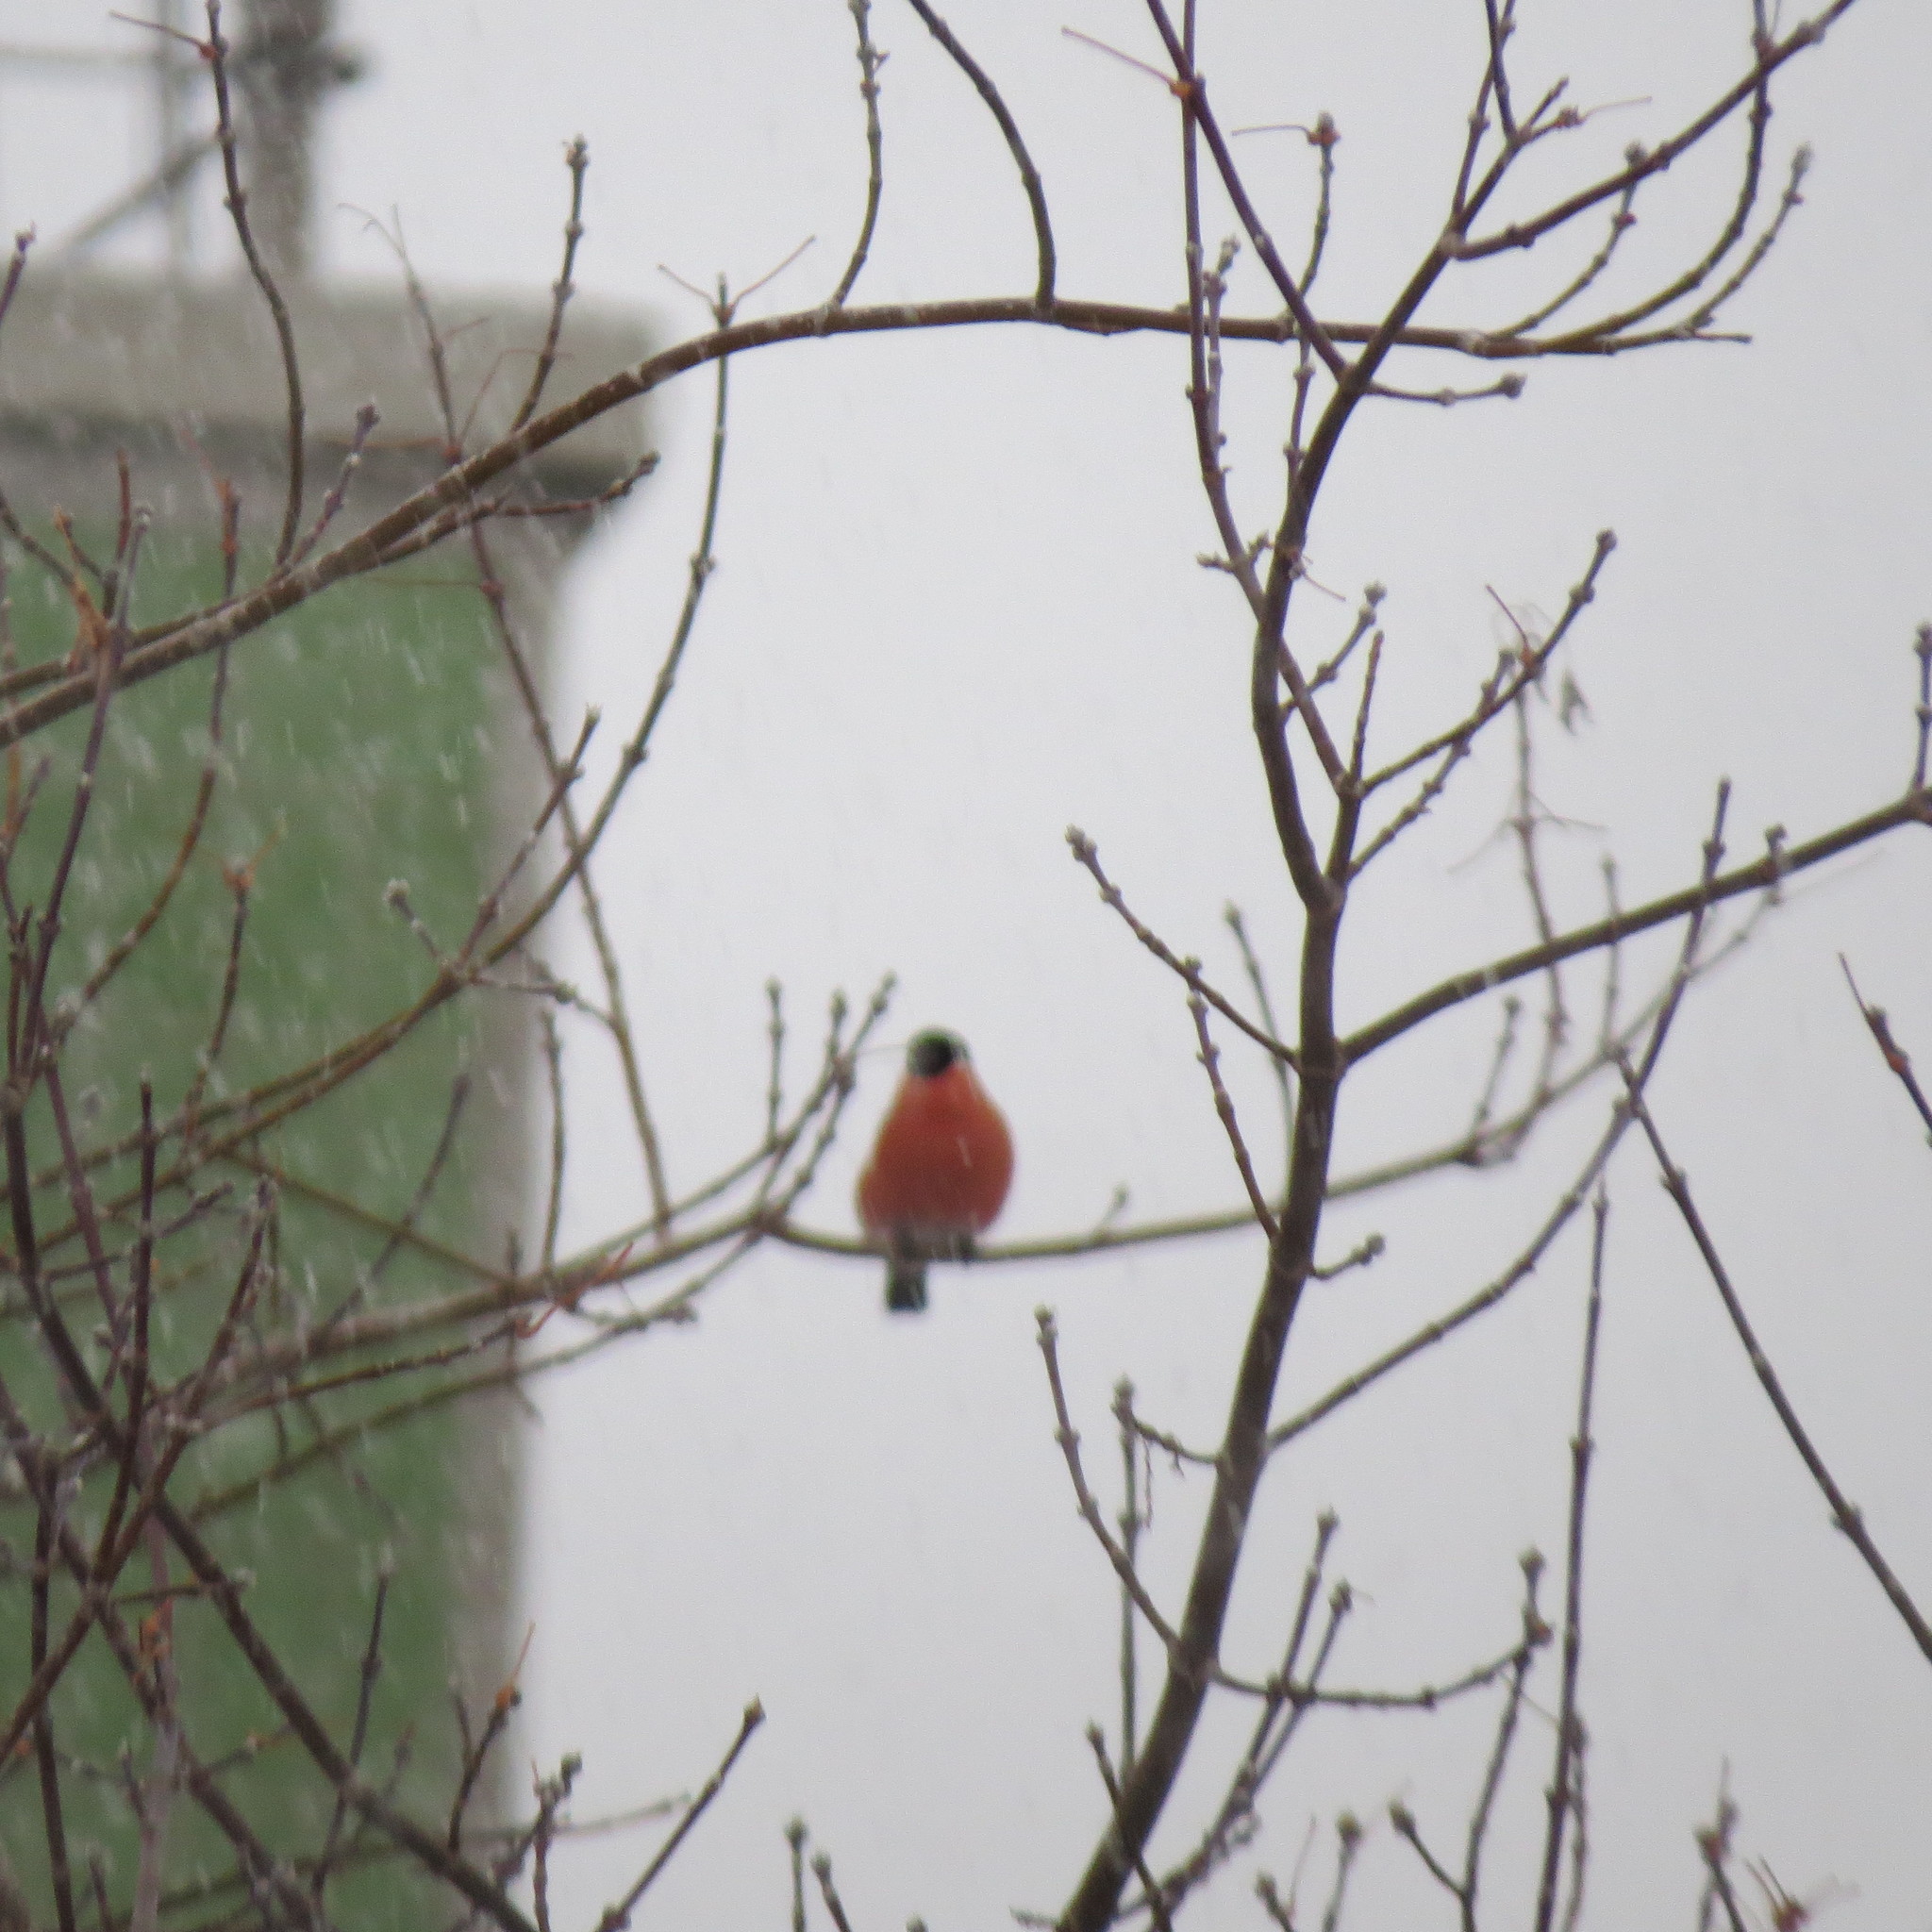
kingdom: Animalia
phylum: Chordata
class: Aves
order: Passeriformes
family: Fringillidae
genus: Pyrrhula
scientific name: Pyrrhula pyrrhula
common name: Eurasian bullfinch
